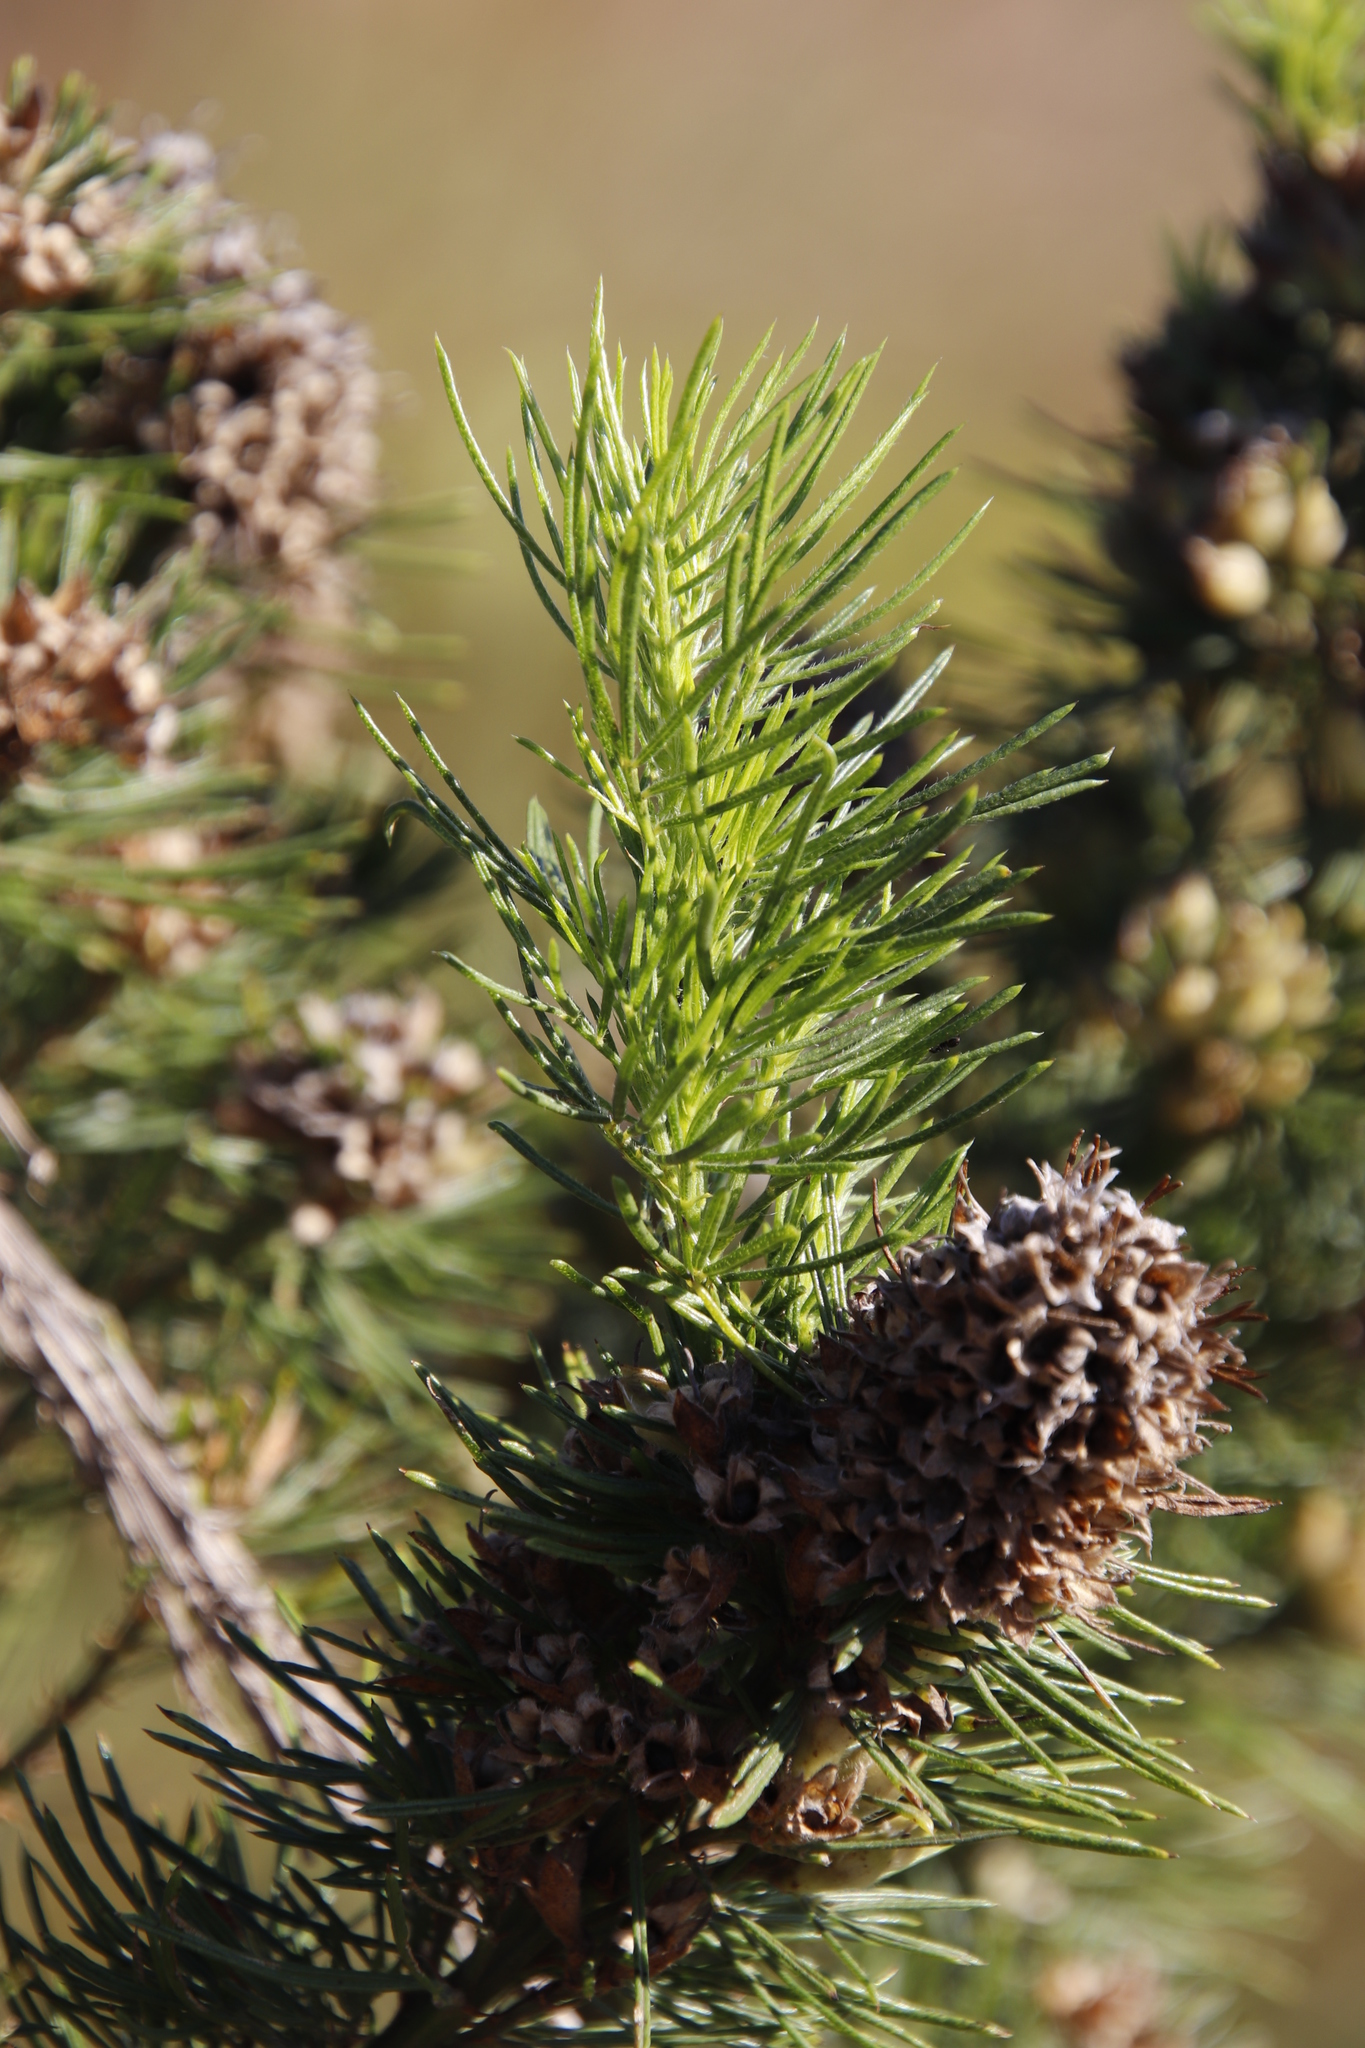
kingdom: Plantae
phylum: Tracheophyta
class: Magnoliopsida
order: Fabales
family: Fabaceae
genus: Psoralea
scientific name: Psoralea pinnata
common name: African scurfpea
